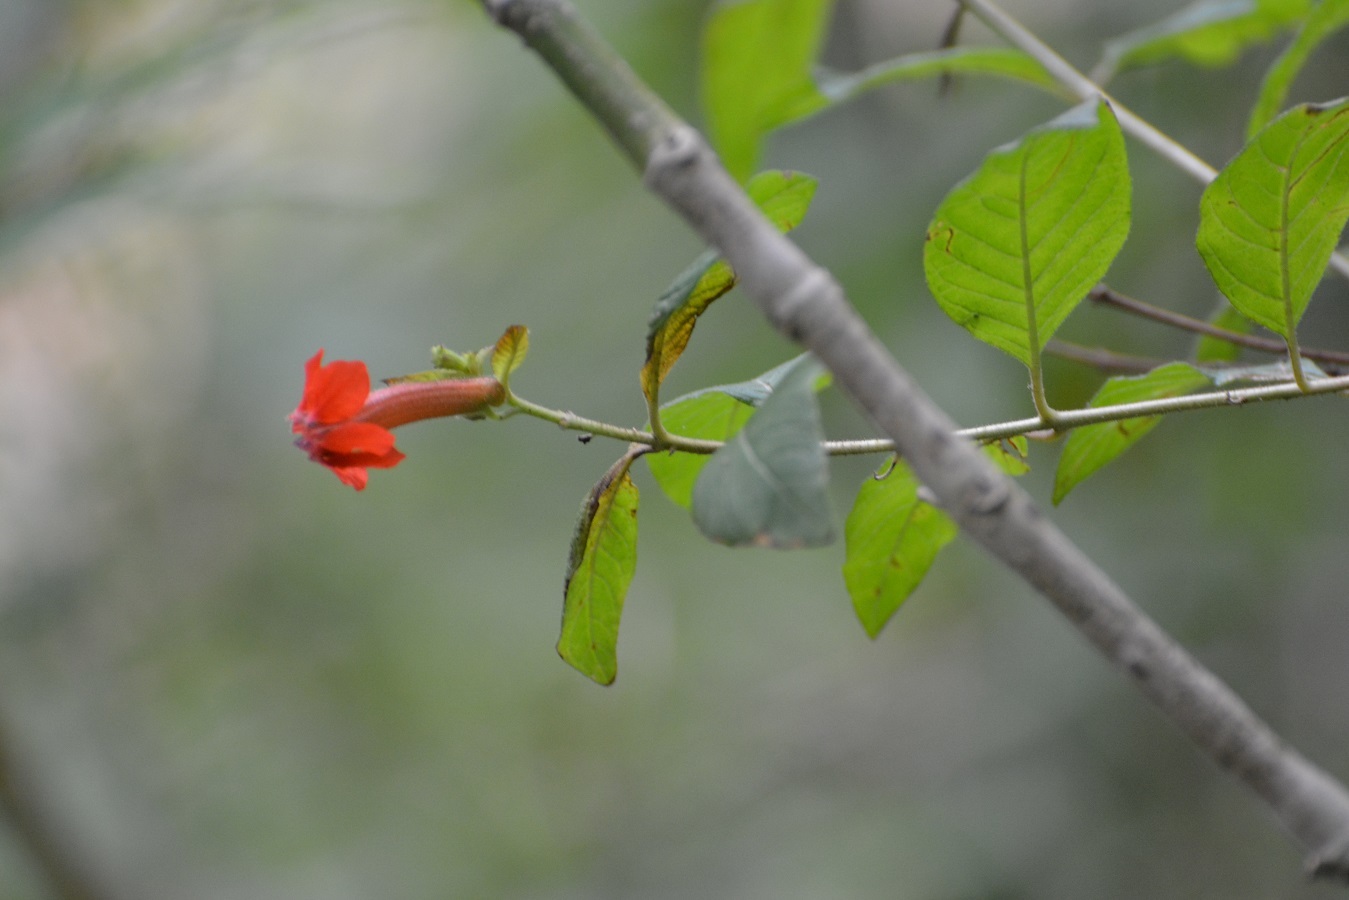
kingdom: Plantae
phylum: Tracheophyta
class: Magnoliopsida
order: Myrtales
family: Lythraceae
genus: Cuphea
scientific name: Cuphea intermedia
